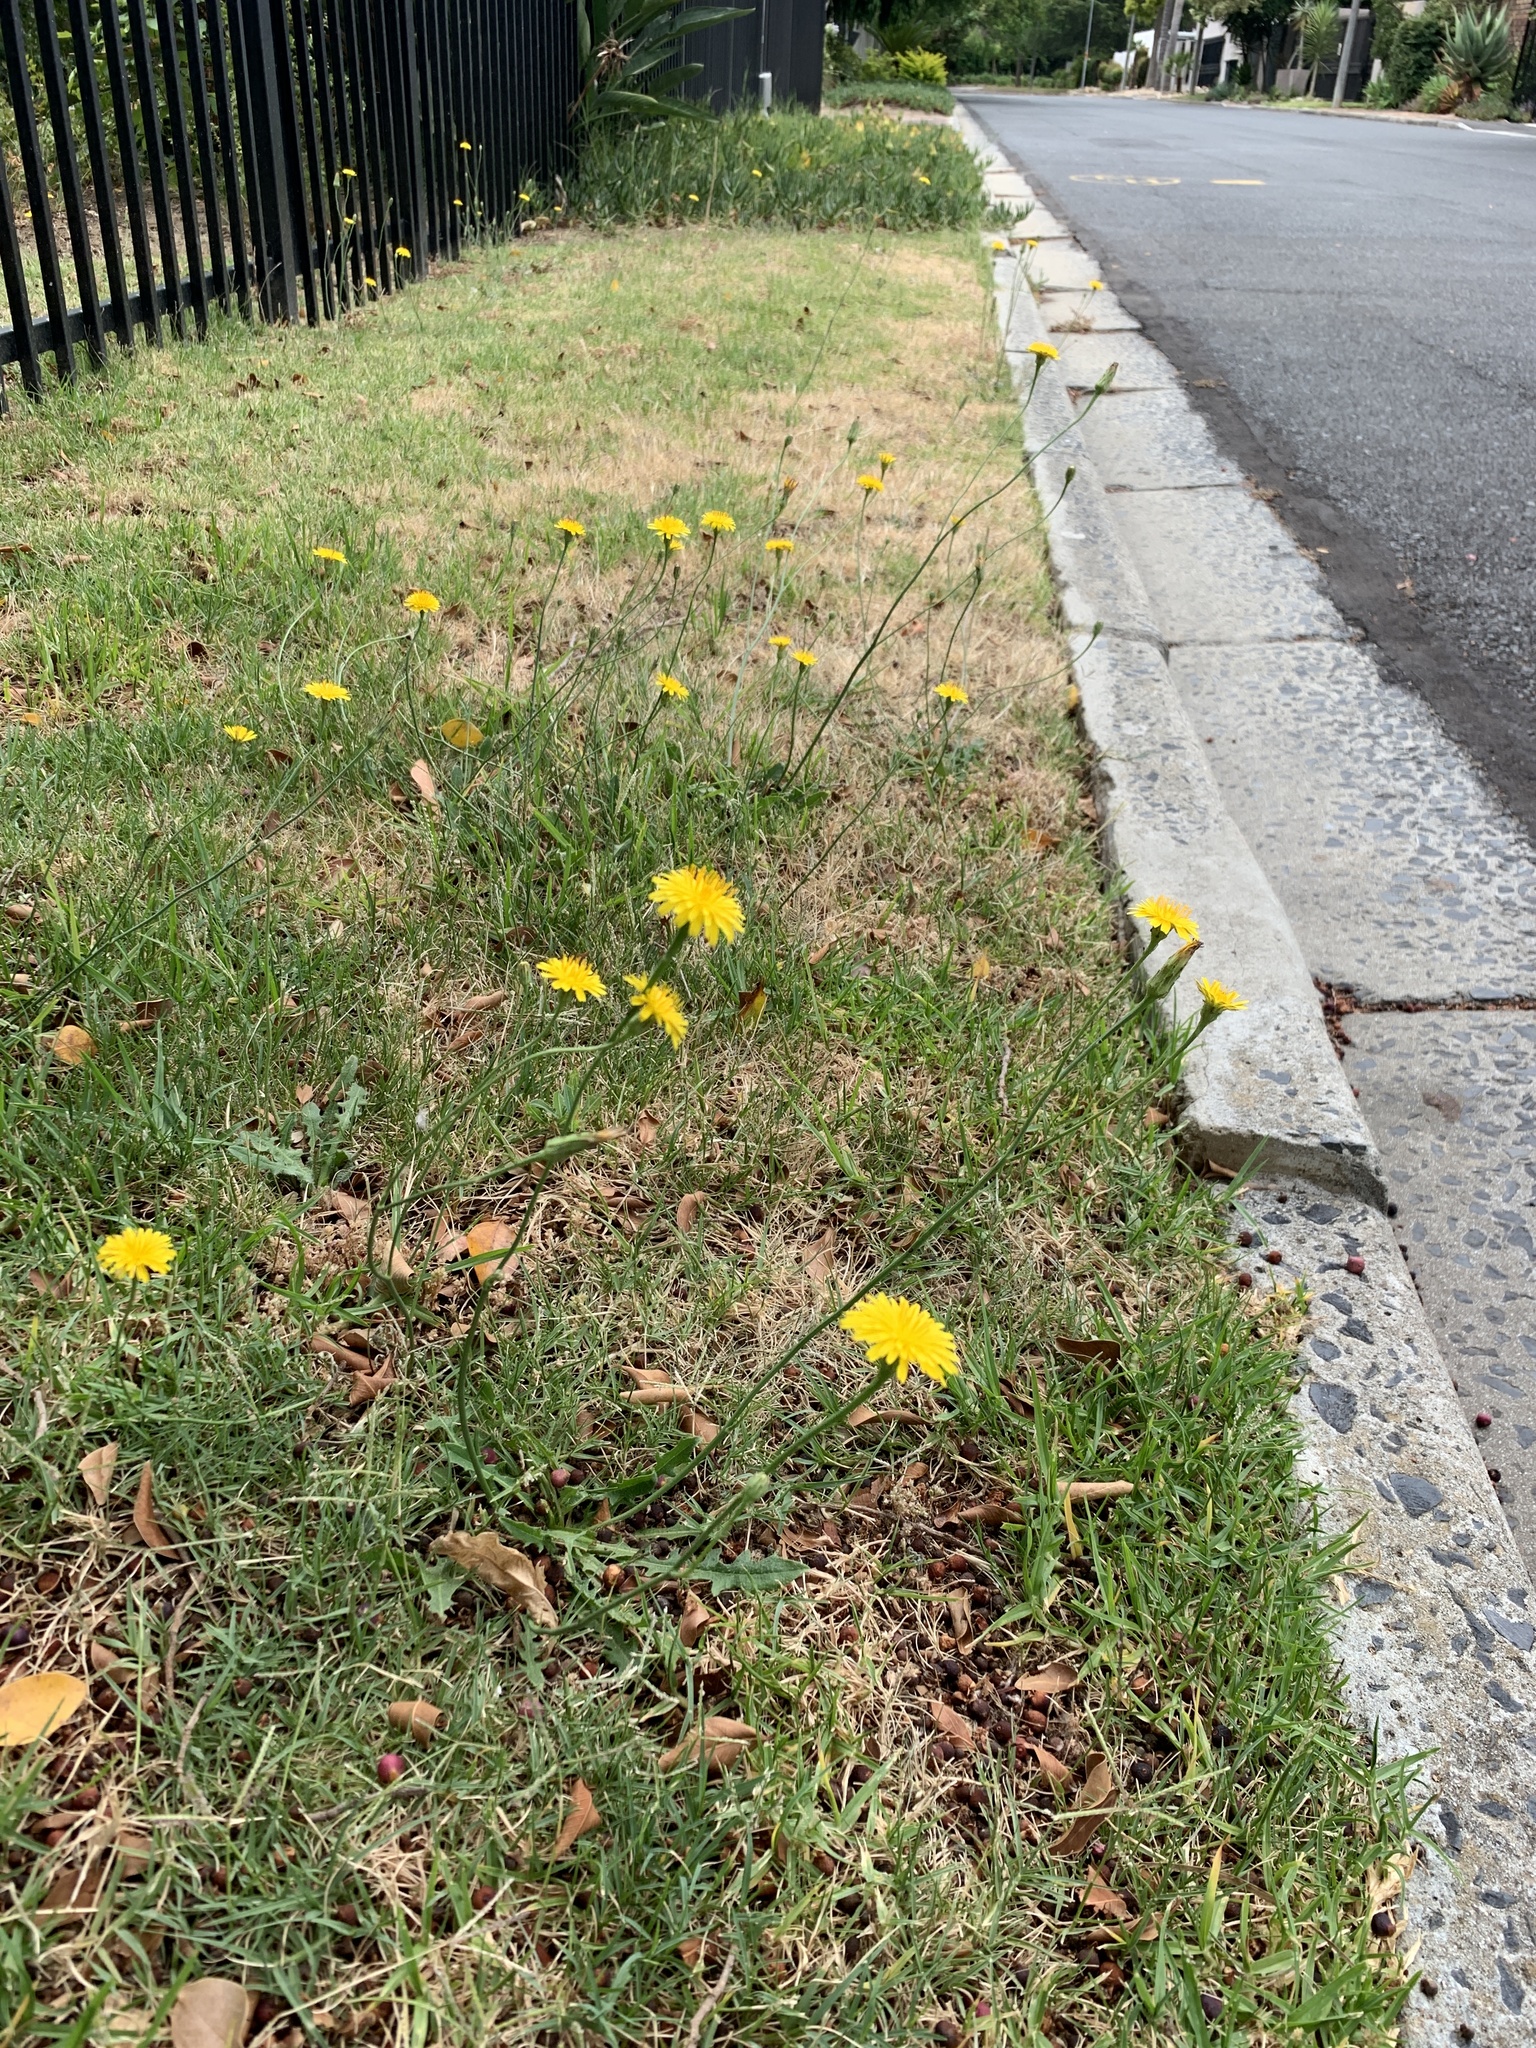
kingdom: Plantae
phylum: Tracheophyta
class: Magnoliopsida
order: Asterales
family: Asteraceae
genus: Hypochaeris
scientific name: Hypochaeris radicata
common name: Flatweed
